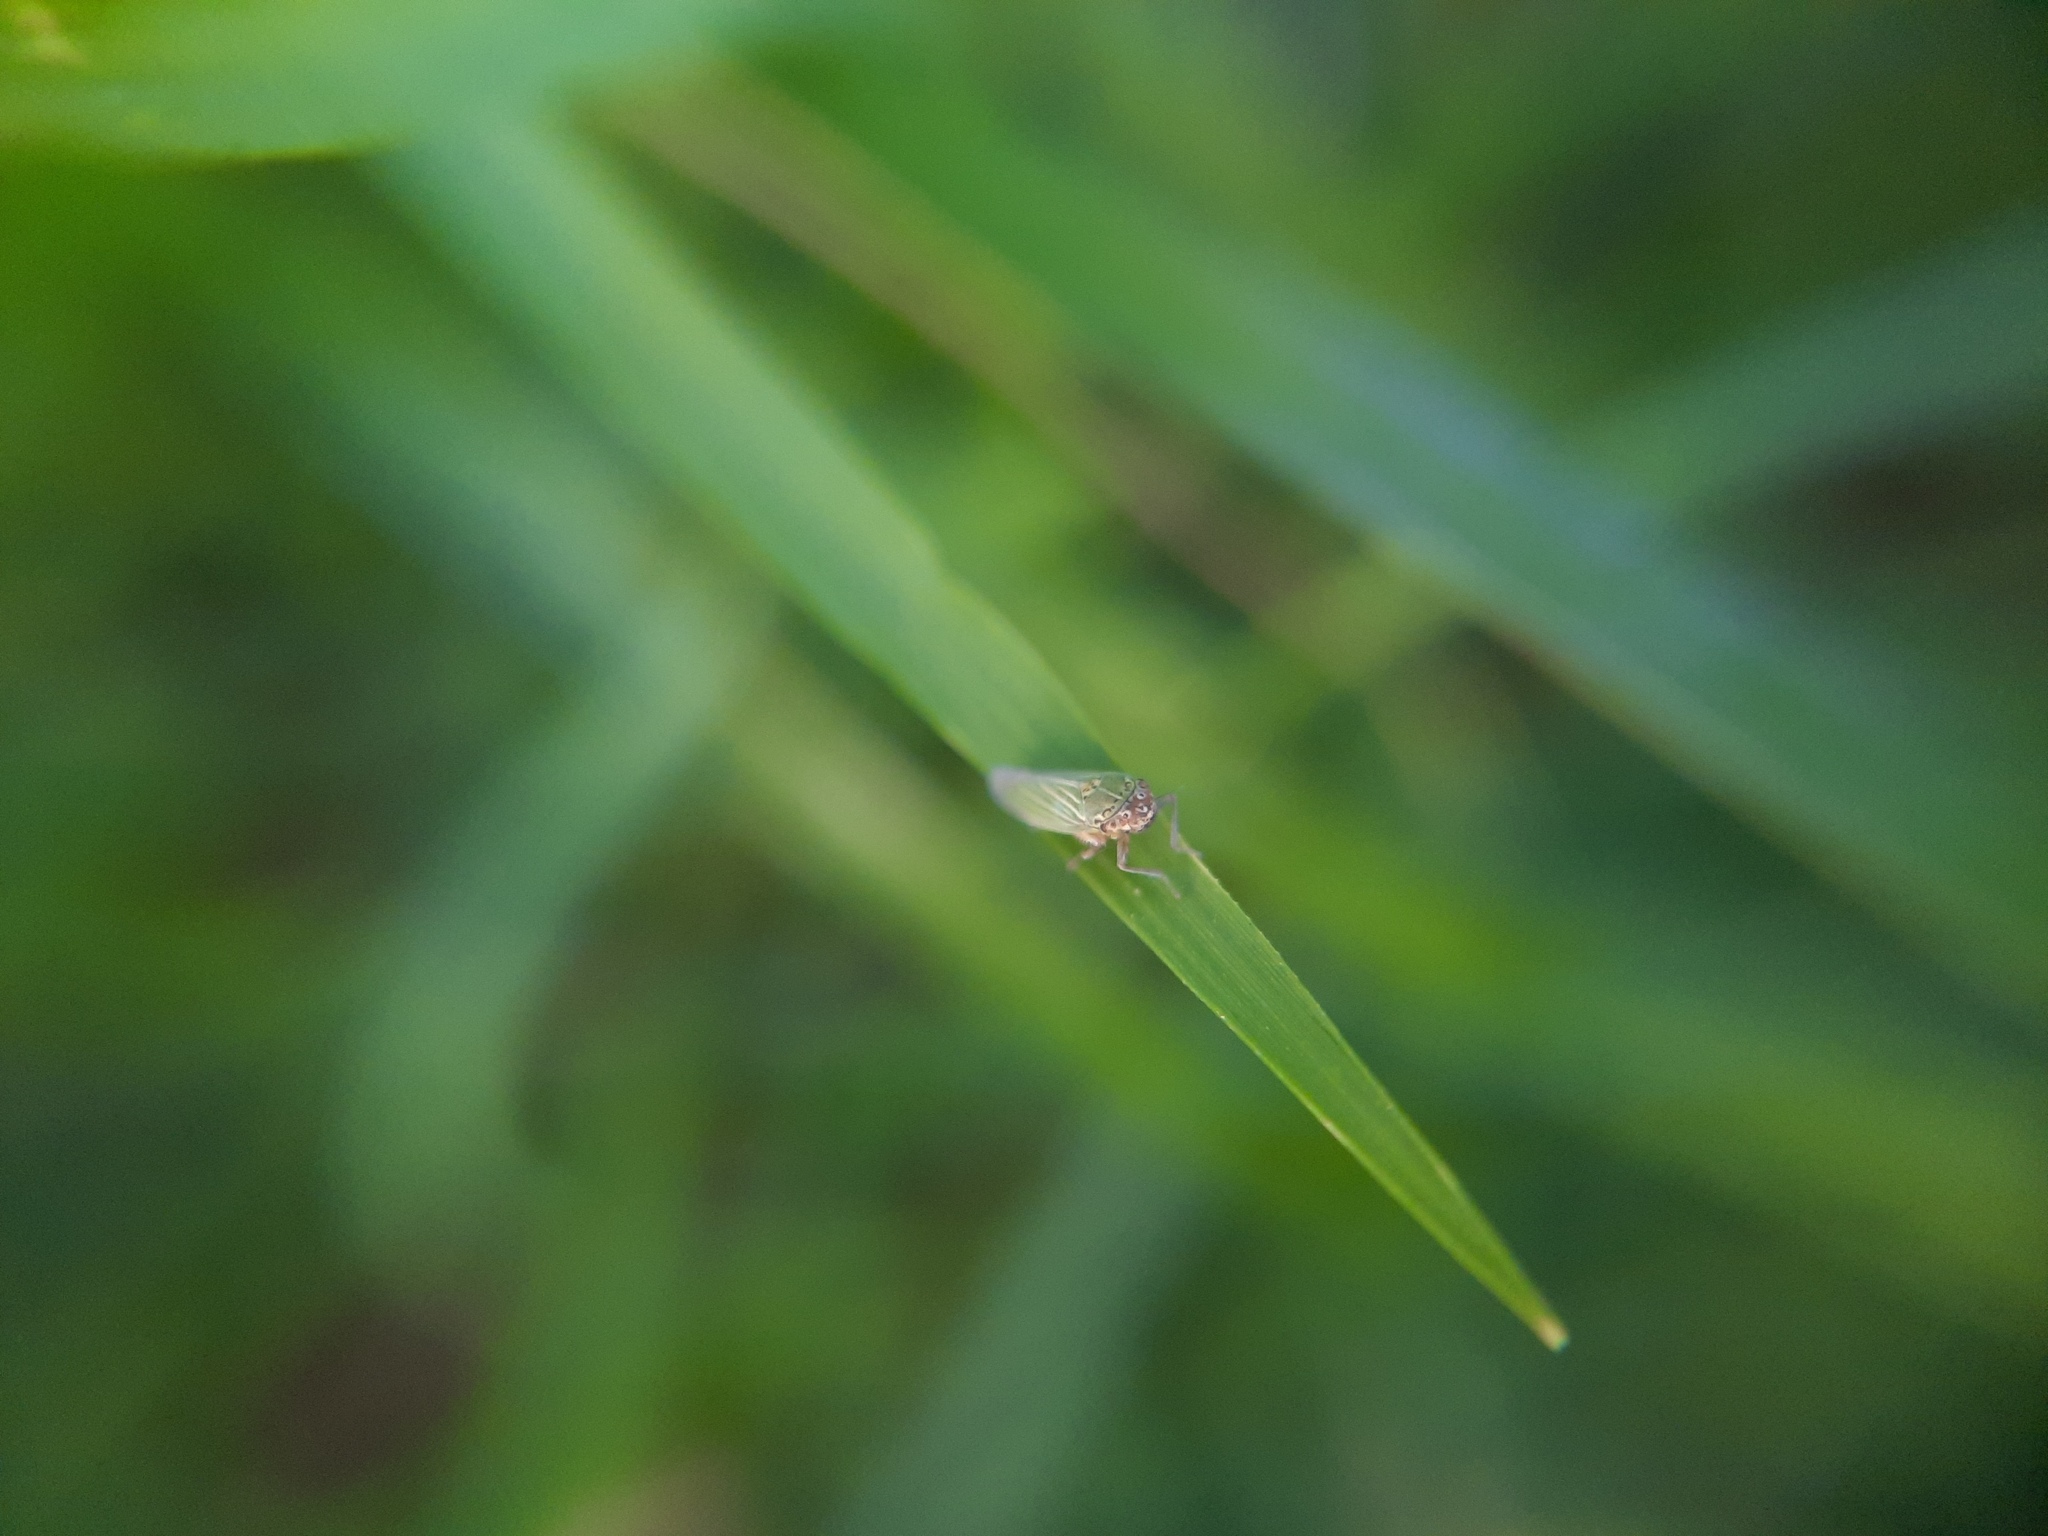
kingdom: Animalia
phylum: Arthropoda
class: Insecta
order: Hemiptera
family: Cicadellidae
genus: Xyphon
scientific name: Xyphon reticulatum
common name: Planthopper
